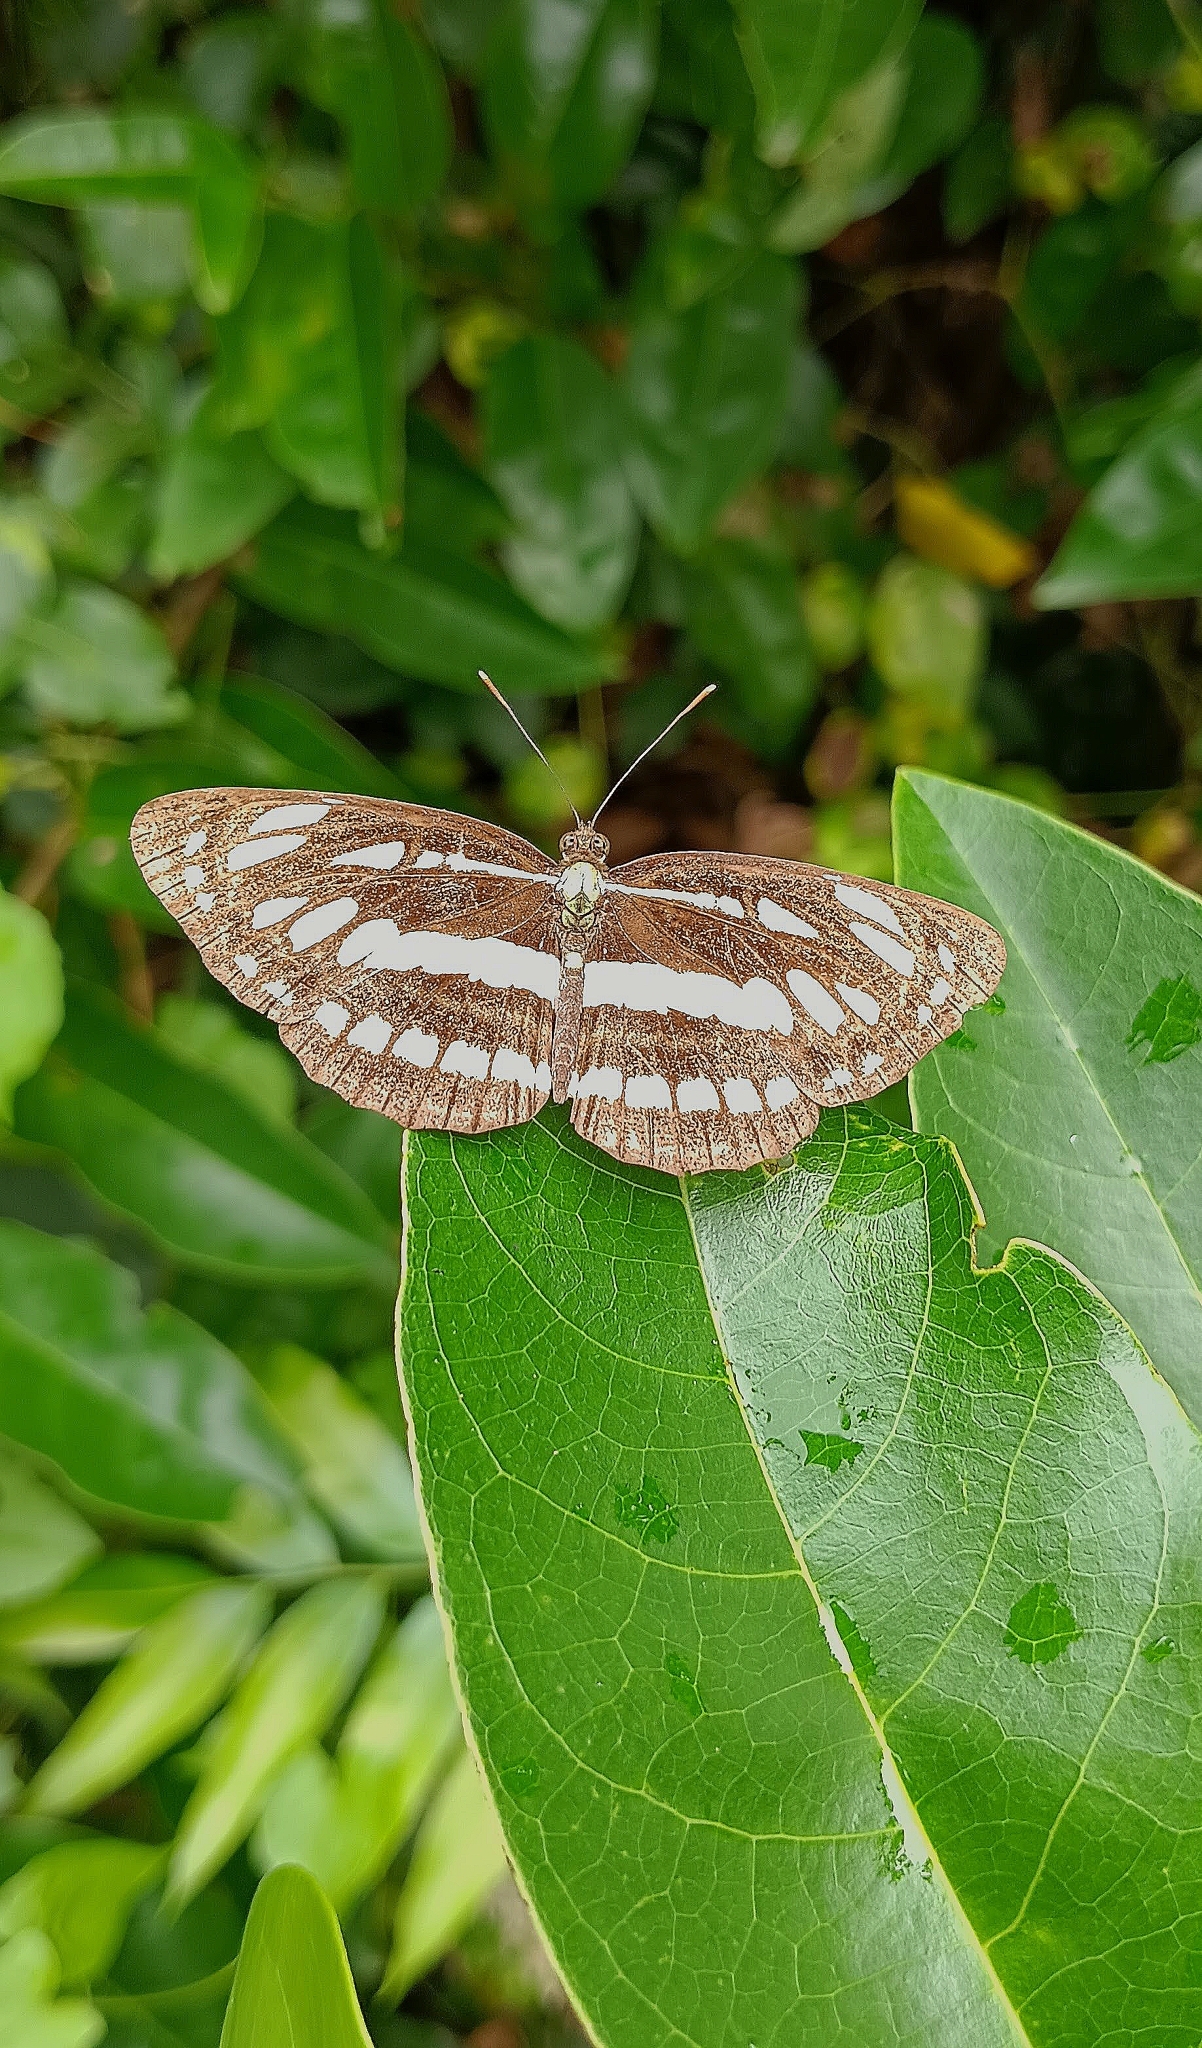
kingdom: Animalia
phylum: Arthropoda
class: Insecta
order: Lepidoptera
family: Nymphalidae
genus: Neptis
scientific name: Neptis hylas
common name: Common sailer
